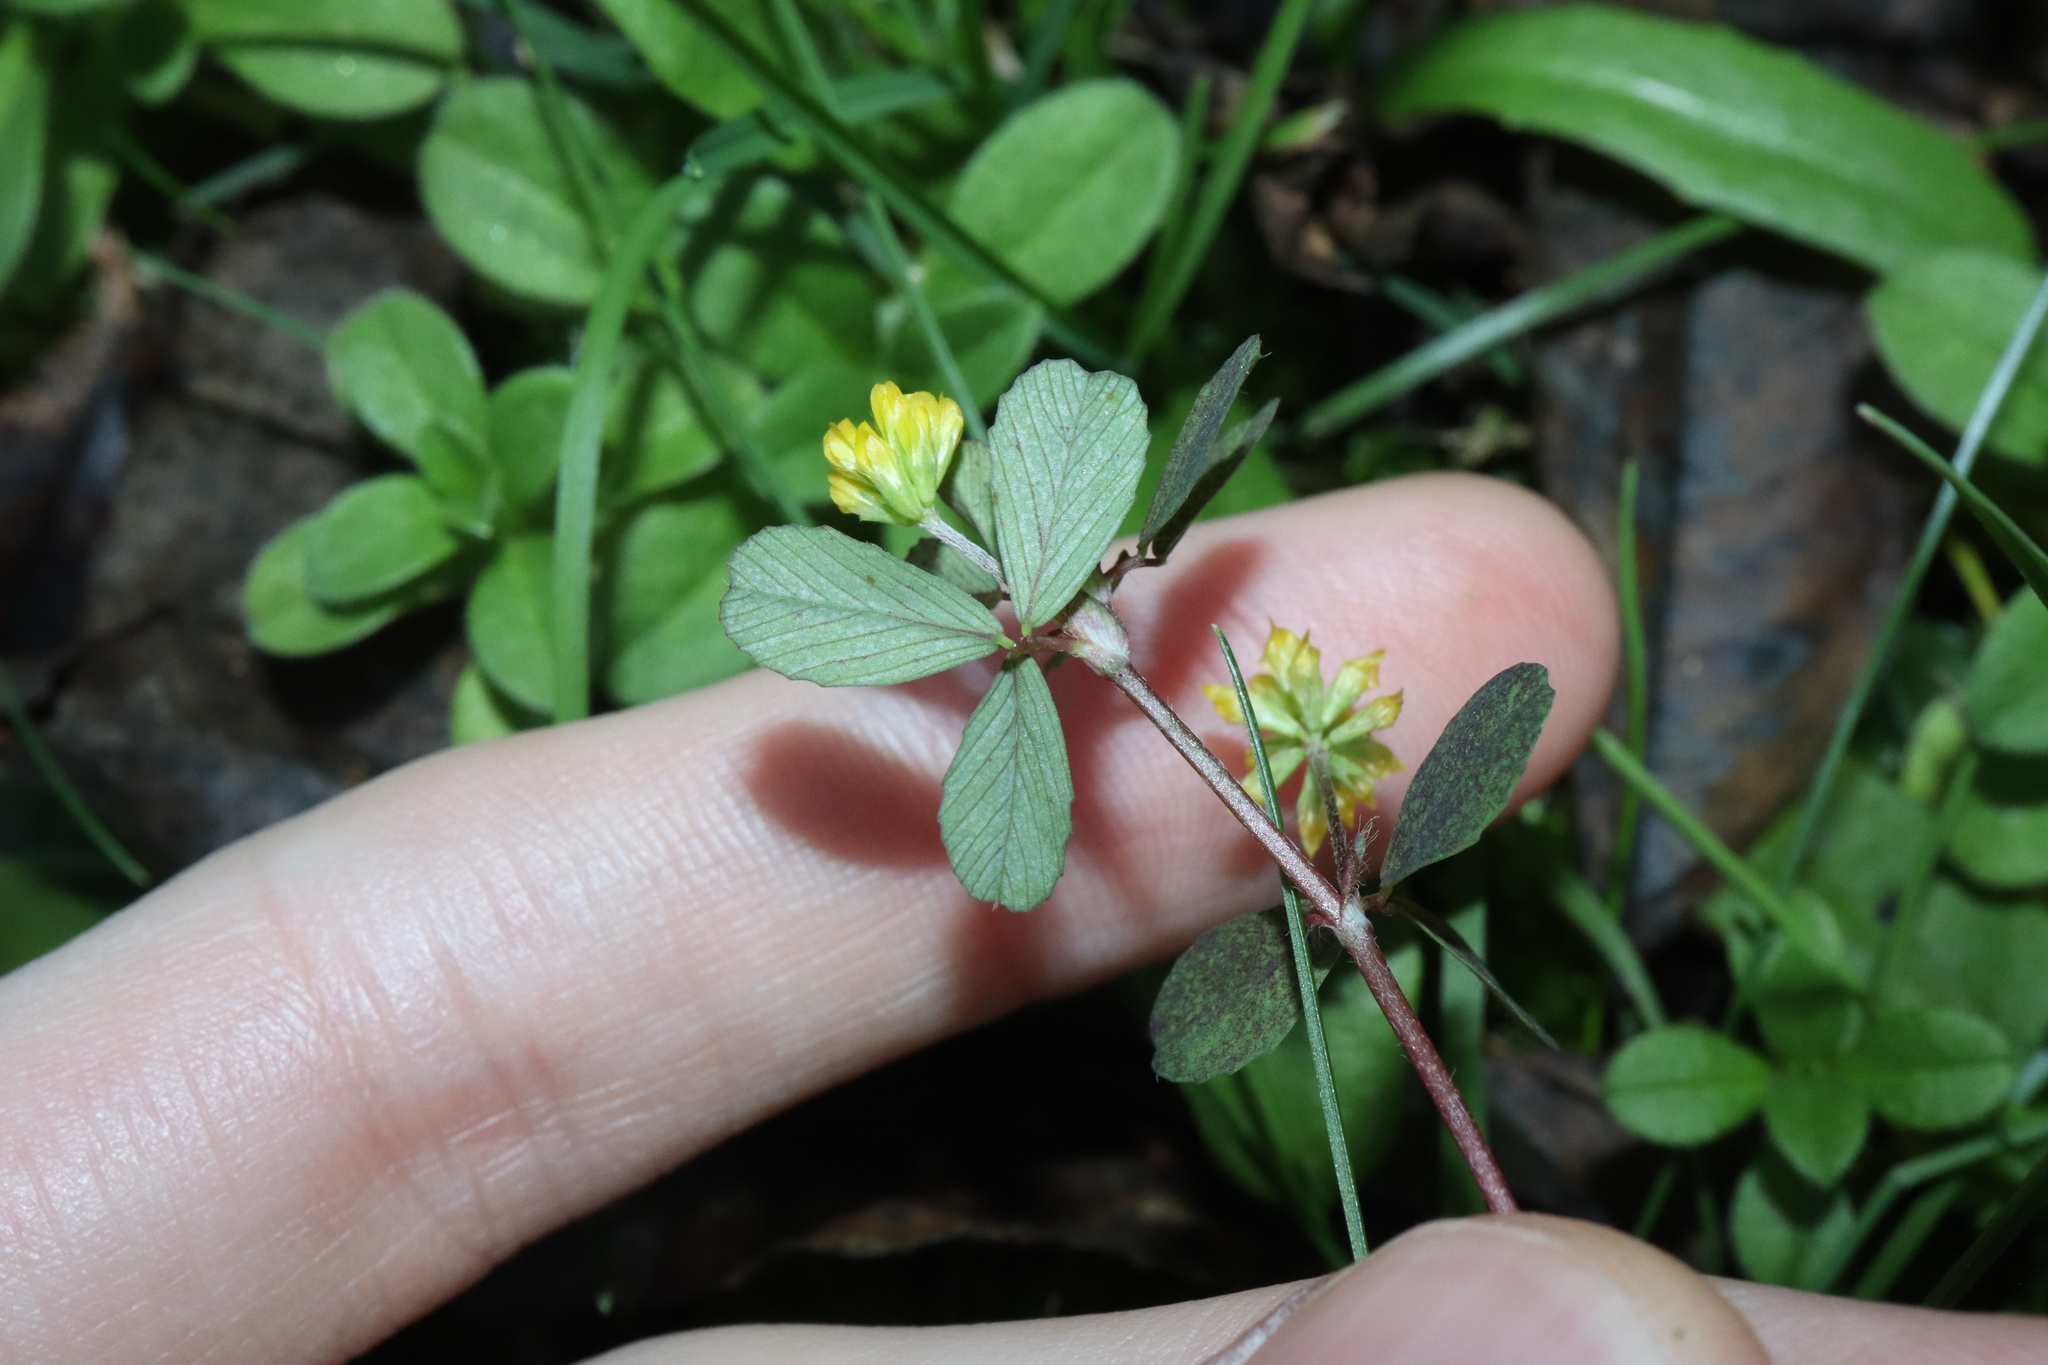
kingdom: Plantae
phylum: Tracheophyta
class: Magnoliopsida
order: Fabales
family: Fabaceae
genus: Trifolium
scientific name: Trifolium dubium
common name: Suckling clover
